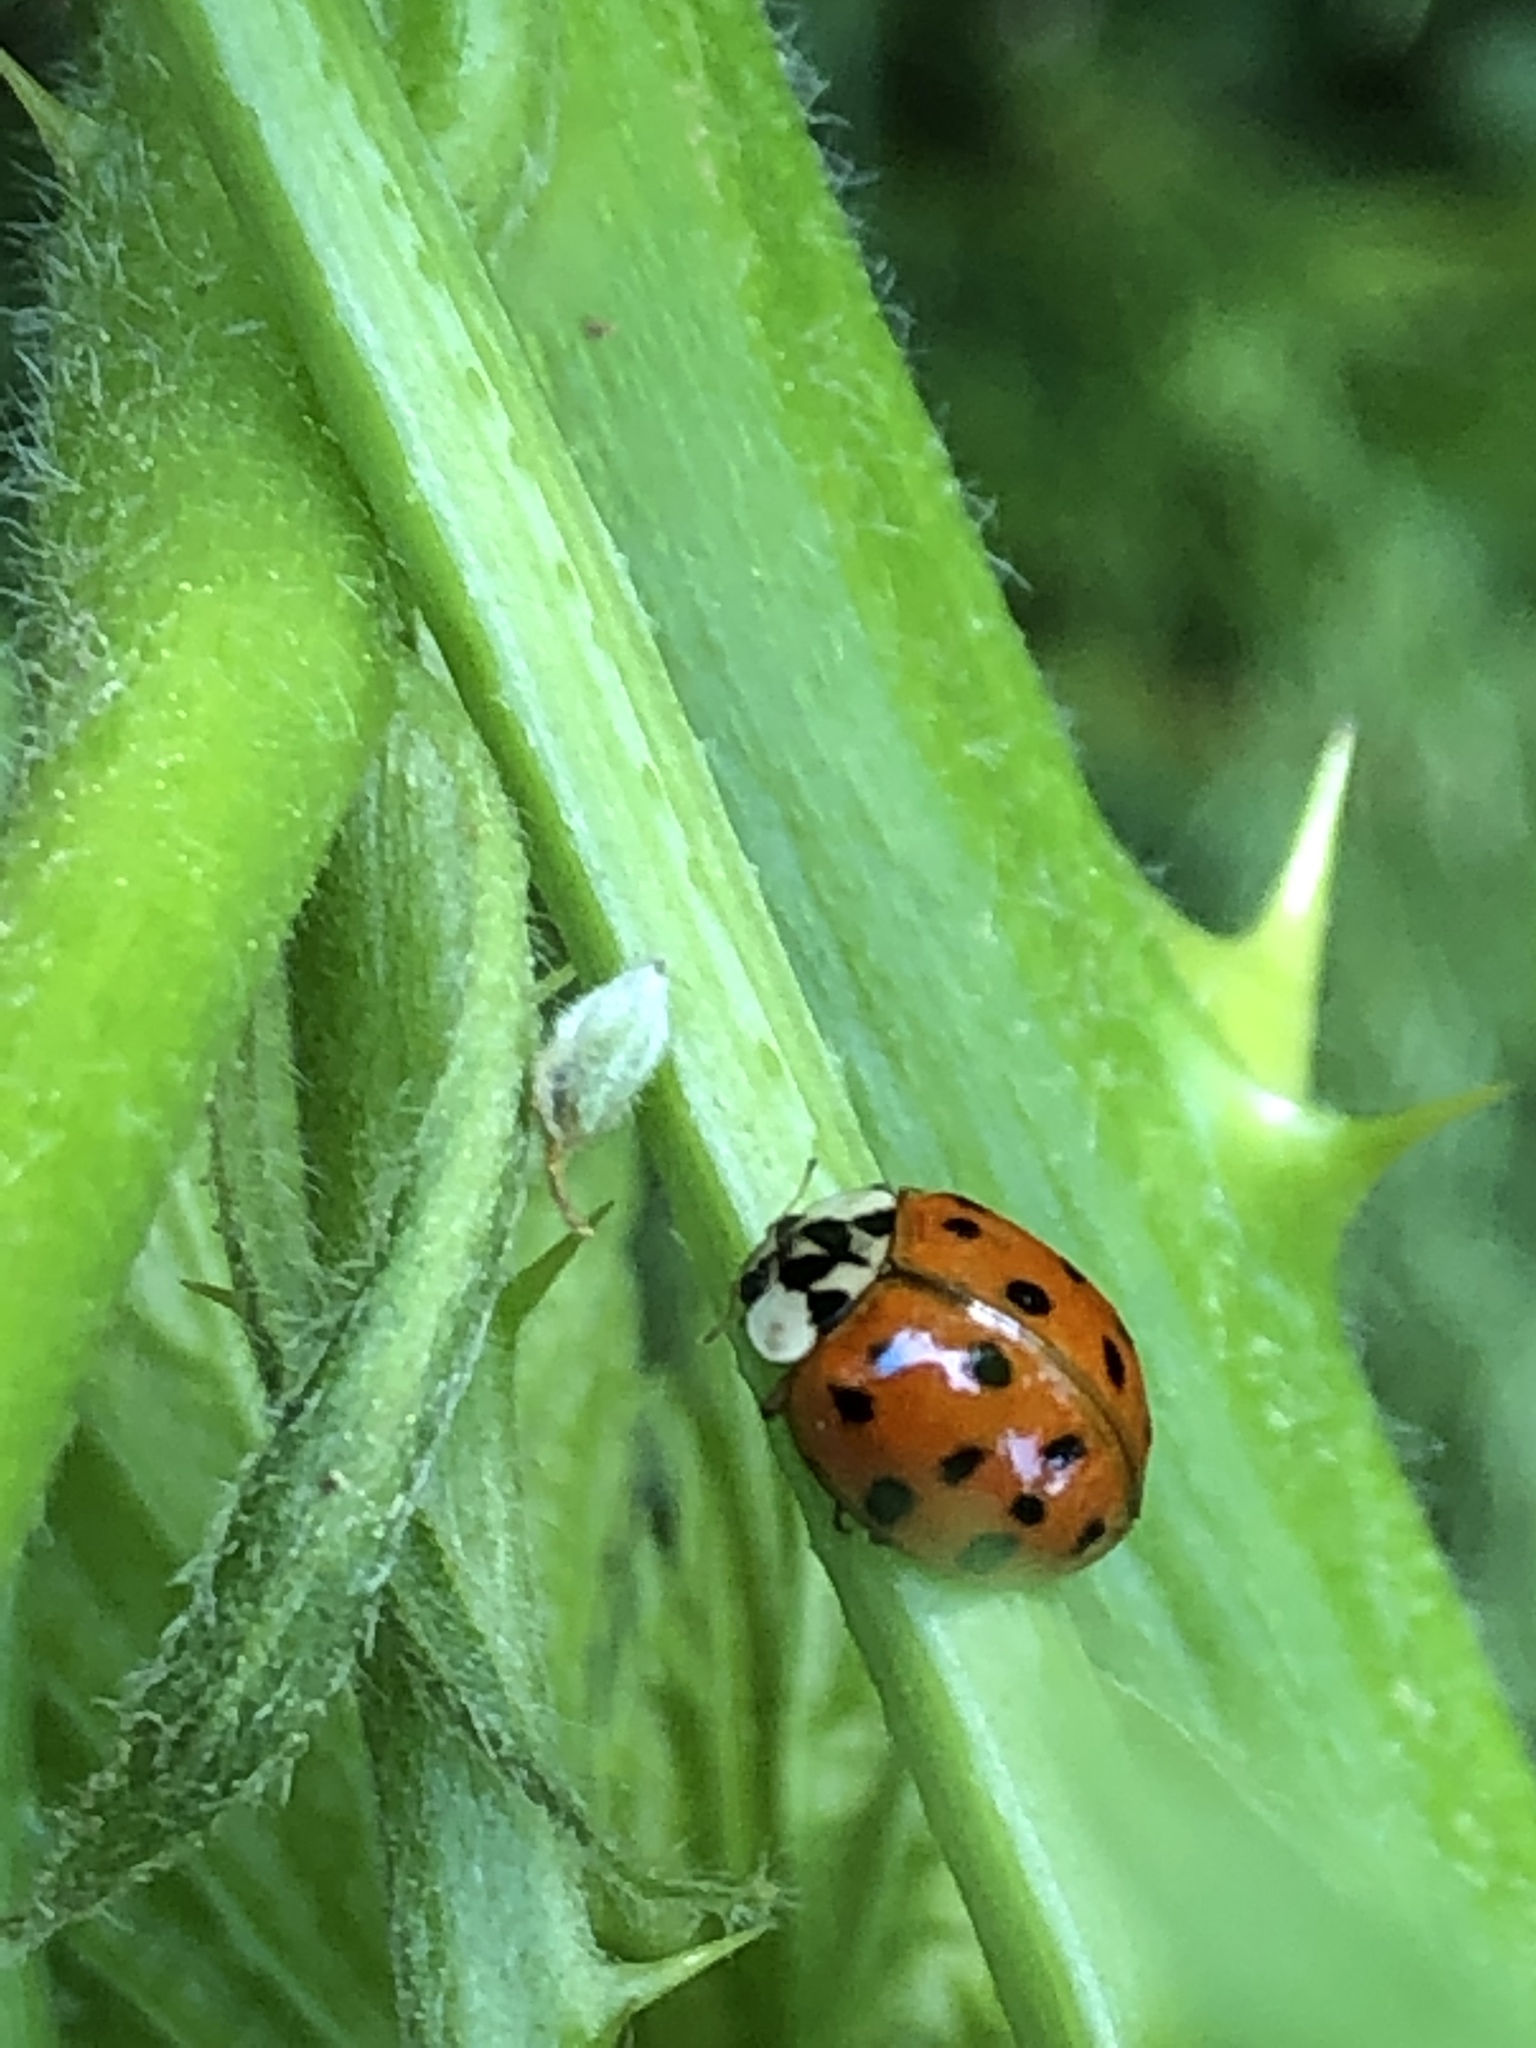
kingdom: Animalia
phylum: Arthropoda
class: Insecta
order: Coleoptera
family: Coccinellidae
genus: Harmonia
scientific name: Harmonia axyridis
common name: Harlequin ladybird
